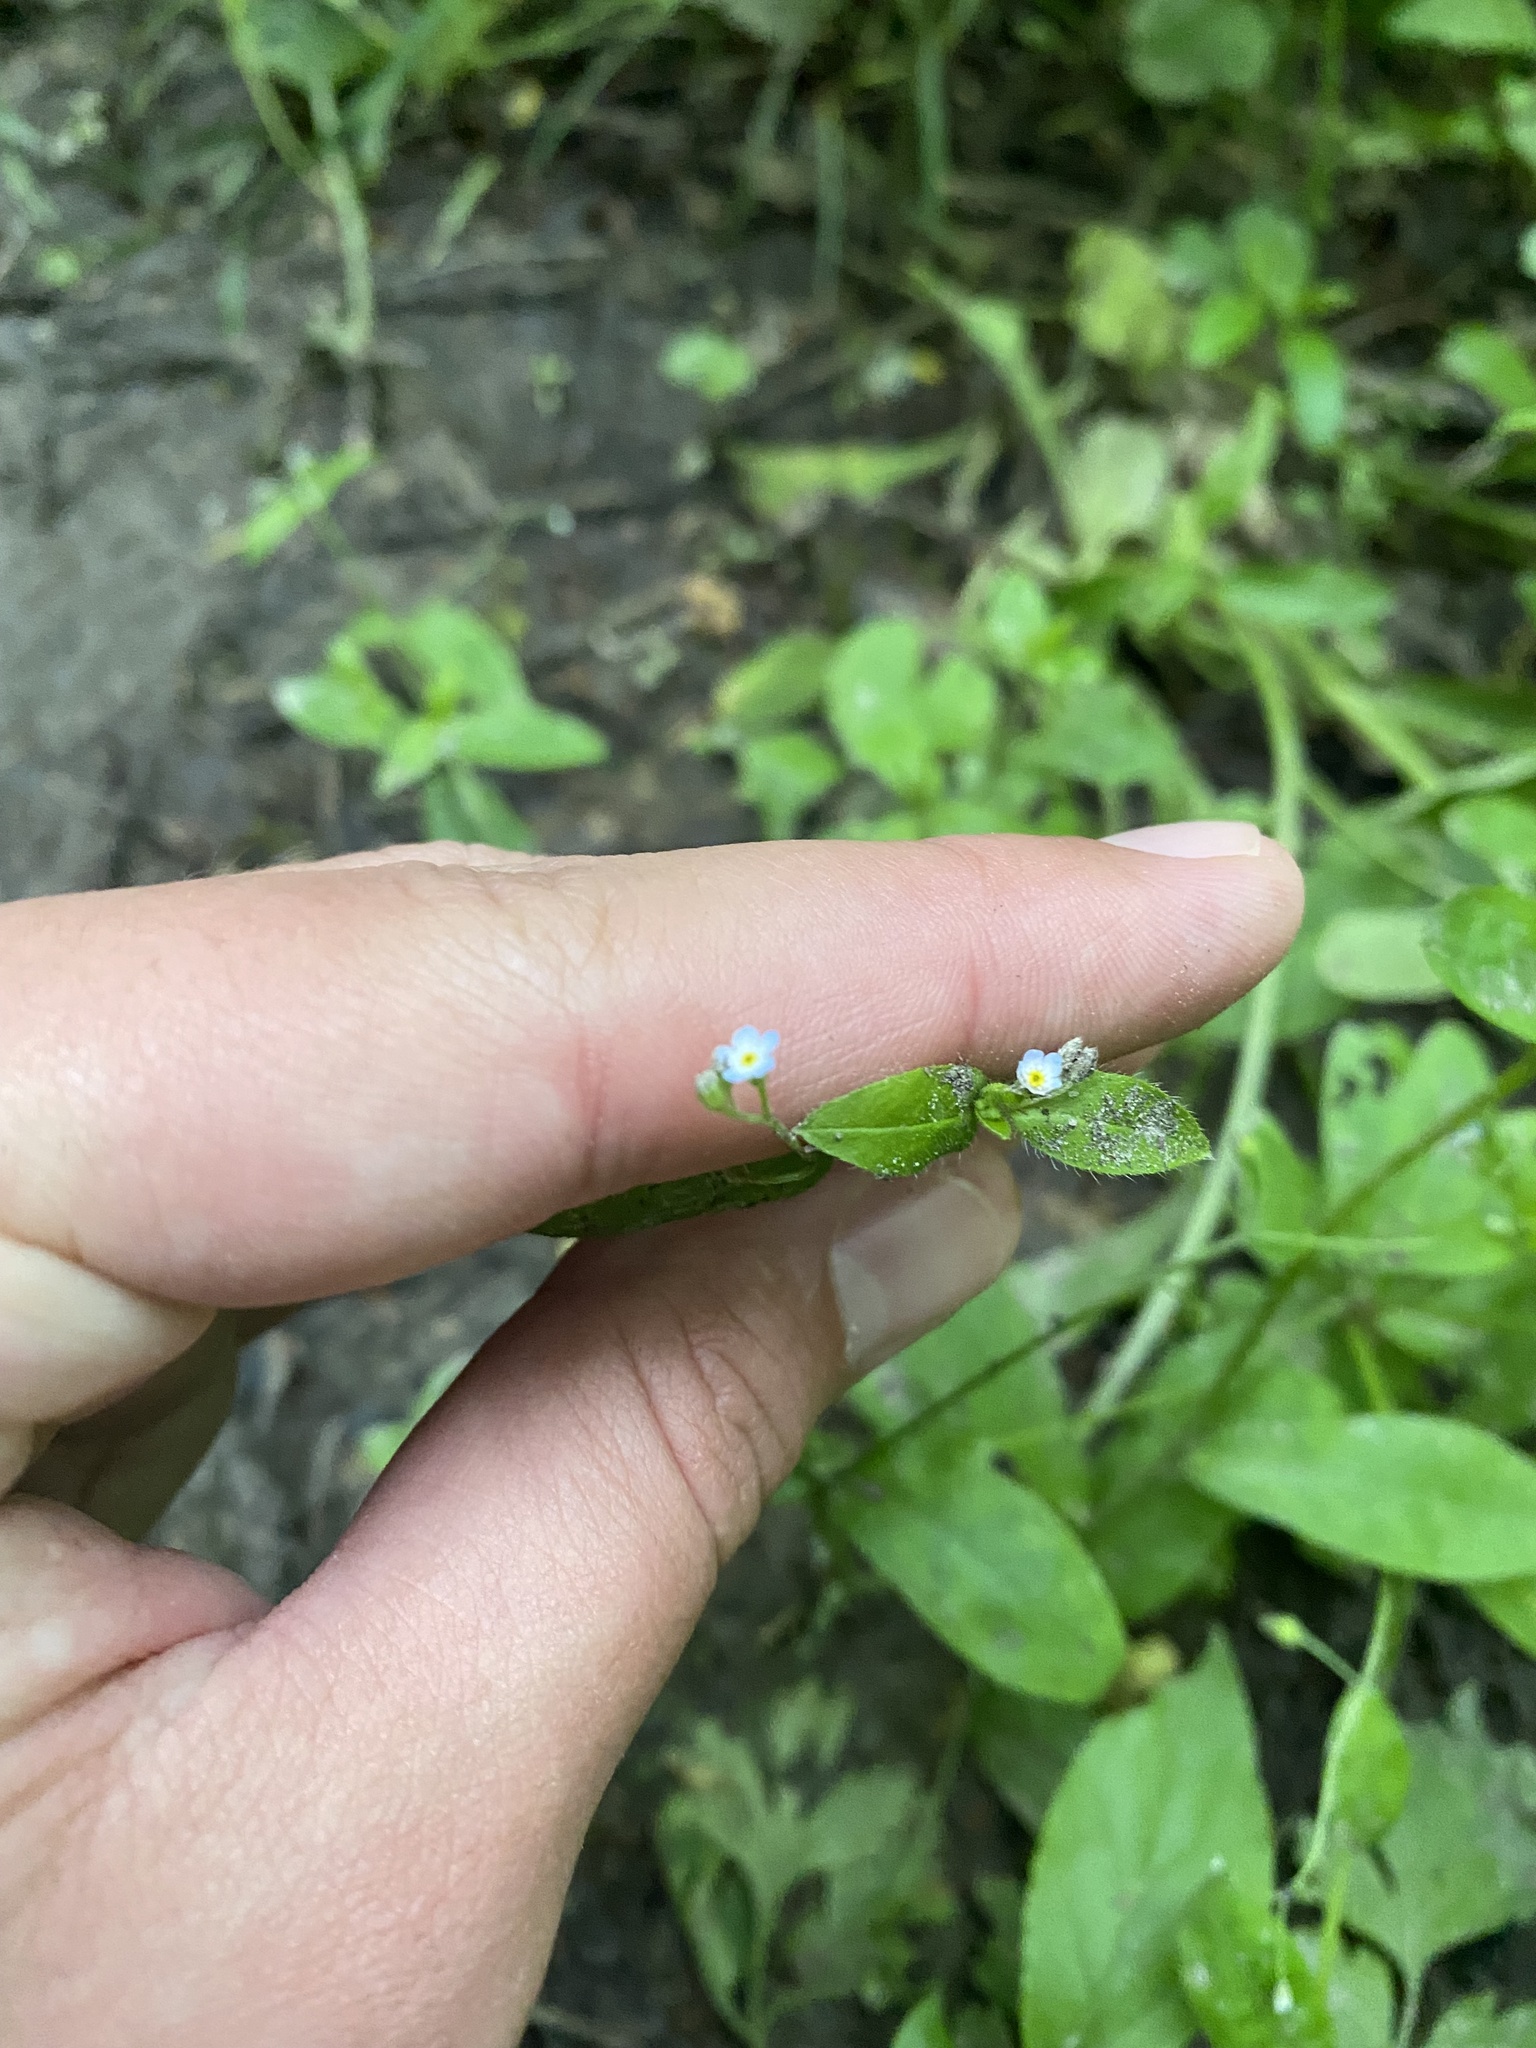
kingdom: Plantae
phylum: Tracheophyta
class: Magnoliopsida
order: Boraginales
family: Boraginaceae
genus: Myosotis
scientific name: Myosotis sparsiflora
